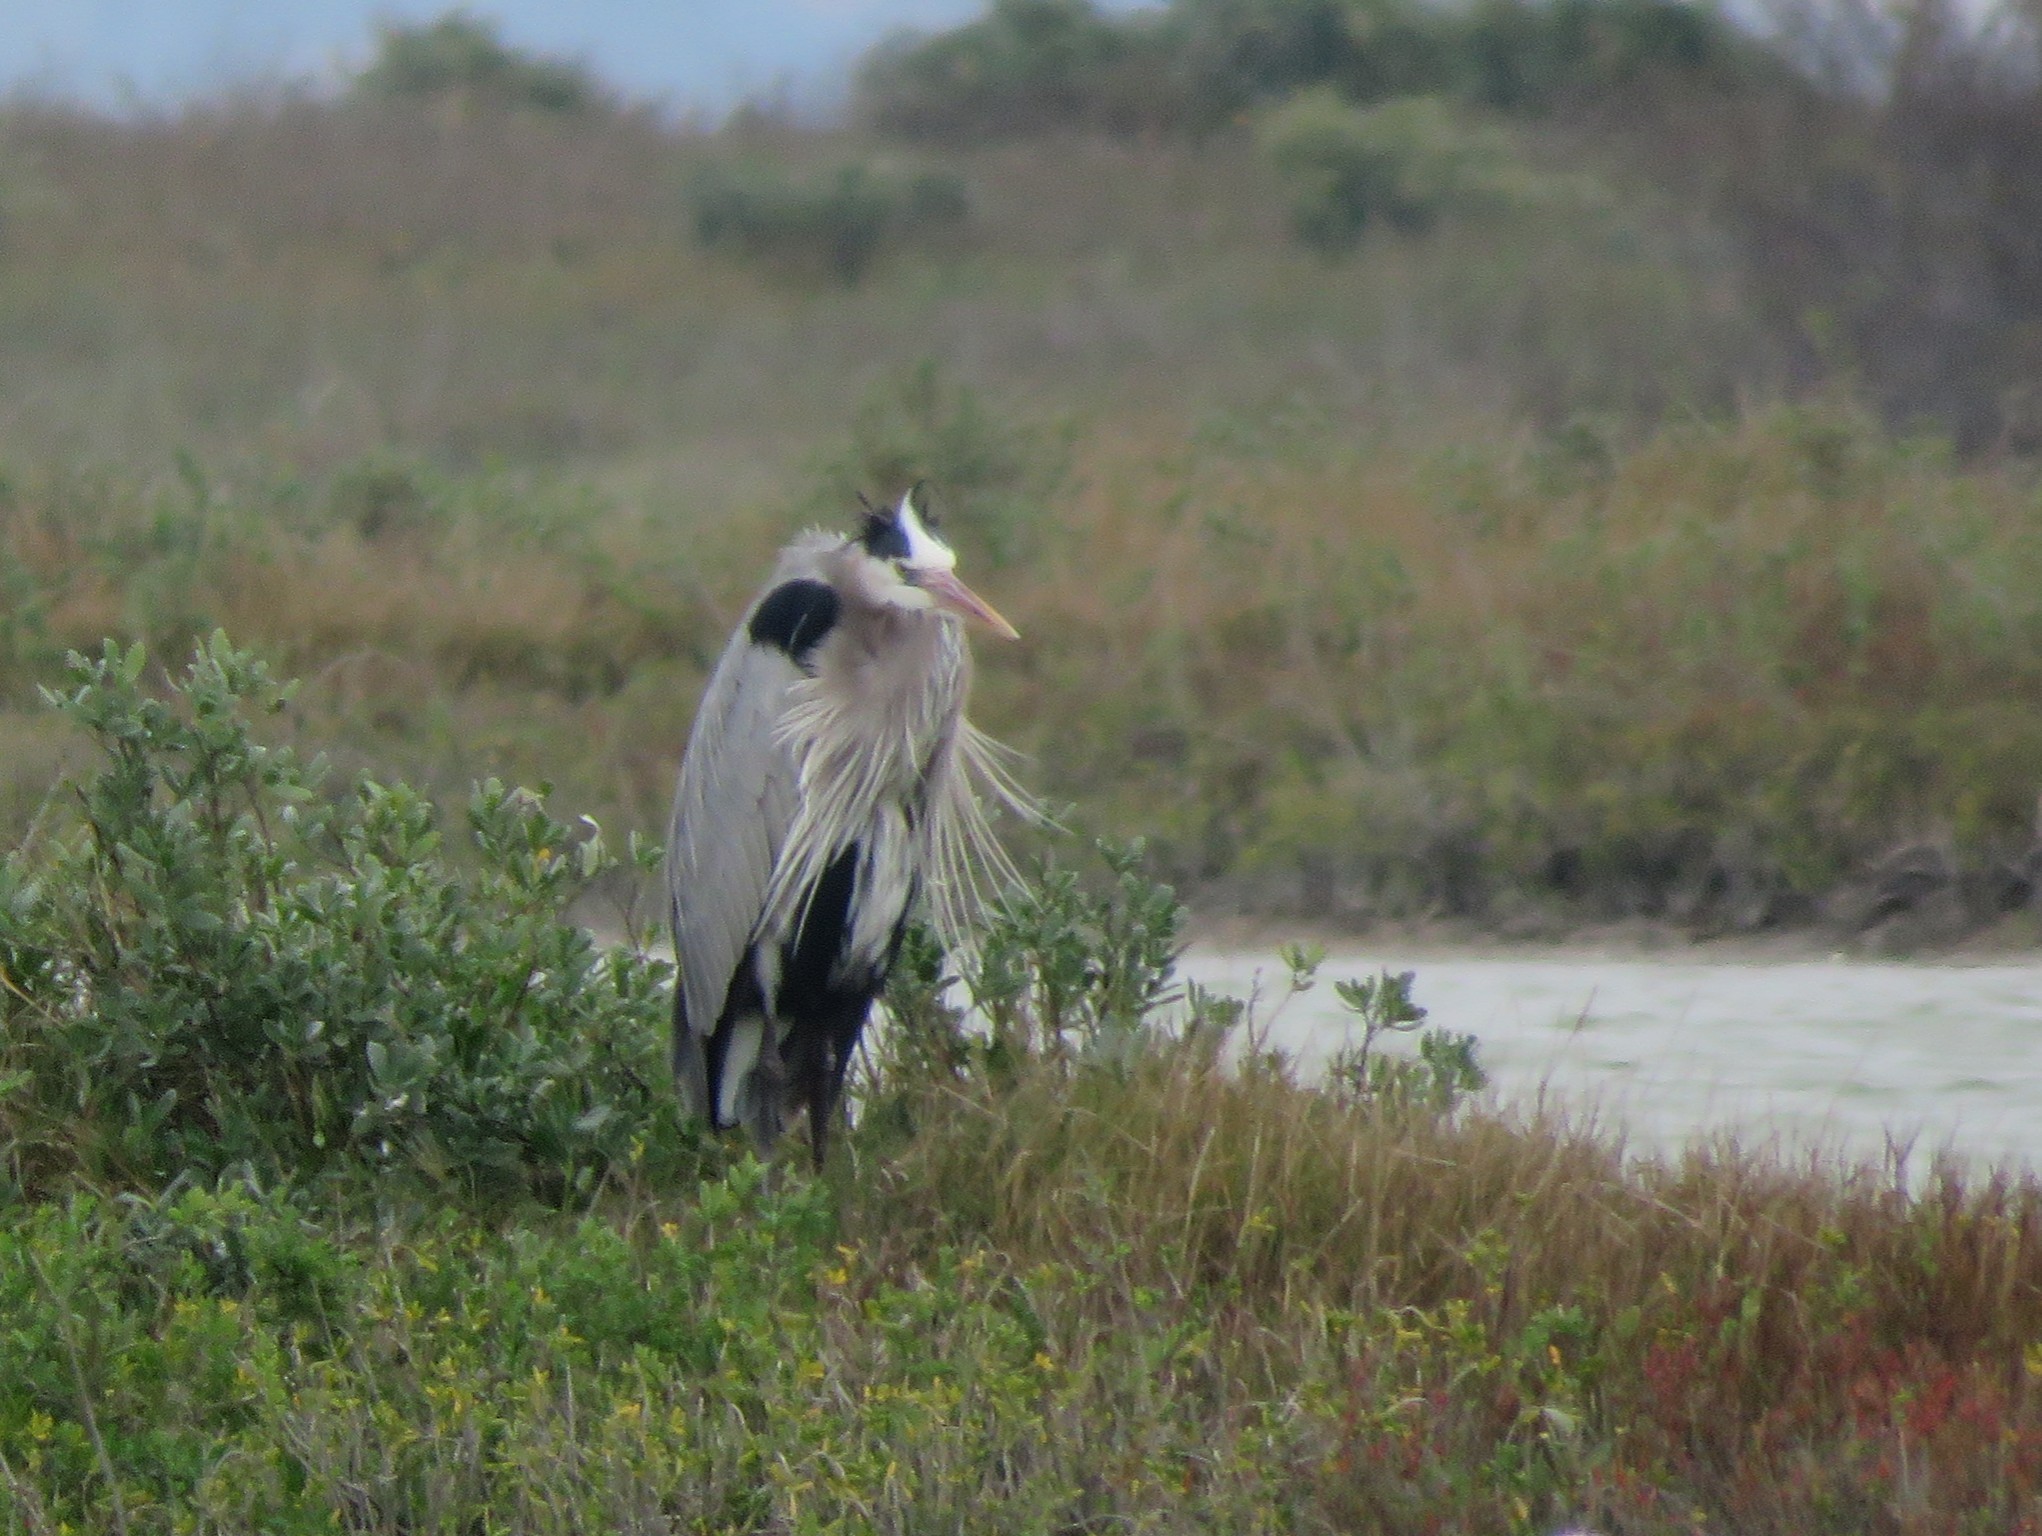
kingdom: Animalia
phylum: Chordata
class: Aves
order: Pelecaniformes
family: Ardeidae
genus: Ardea
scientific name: Ardea herodias
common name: Great blue heron
